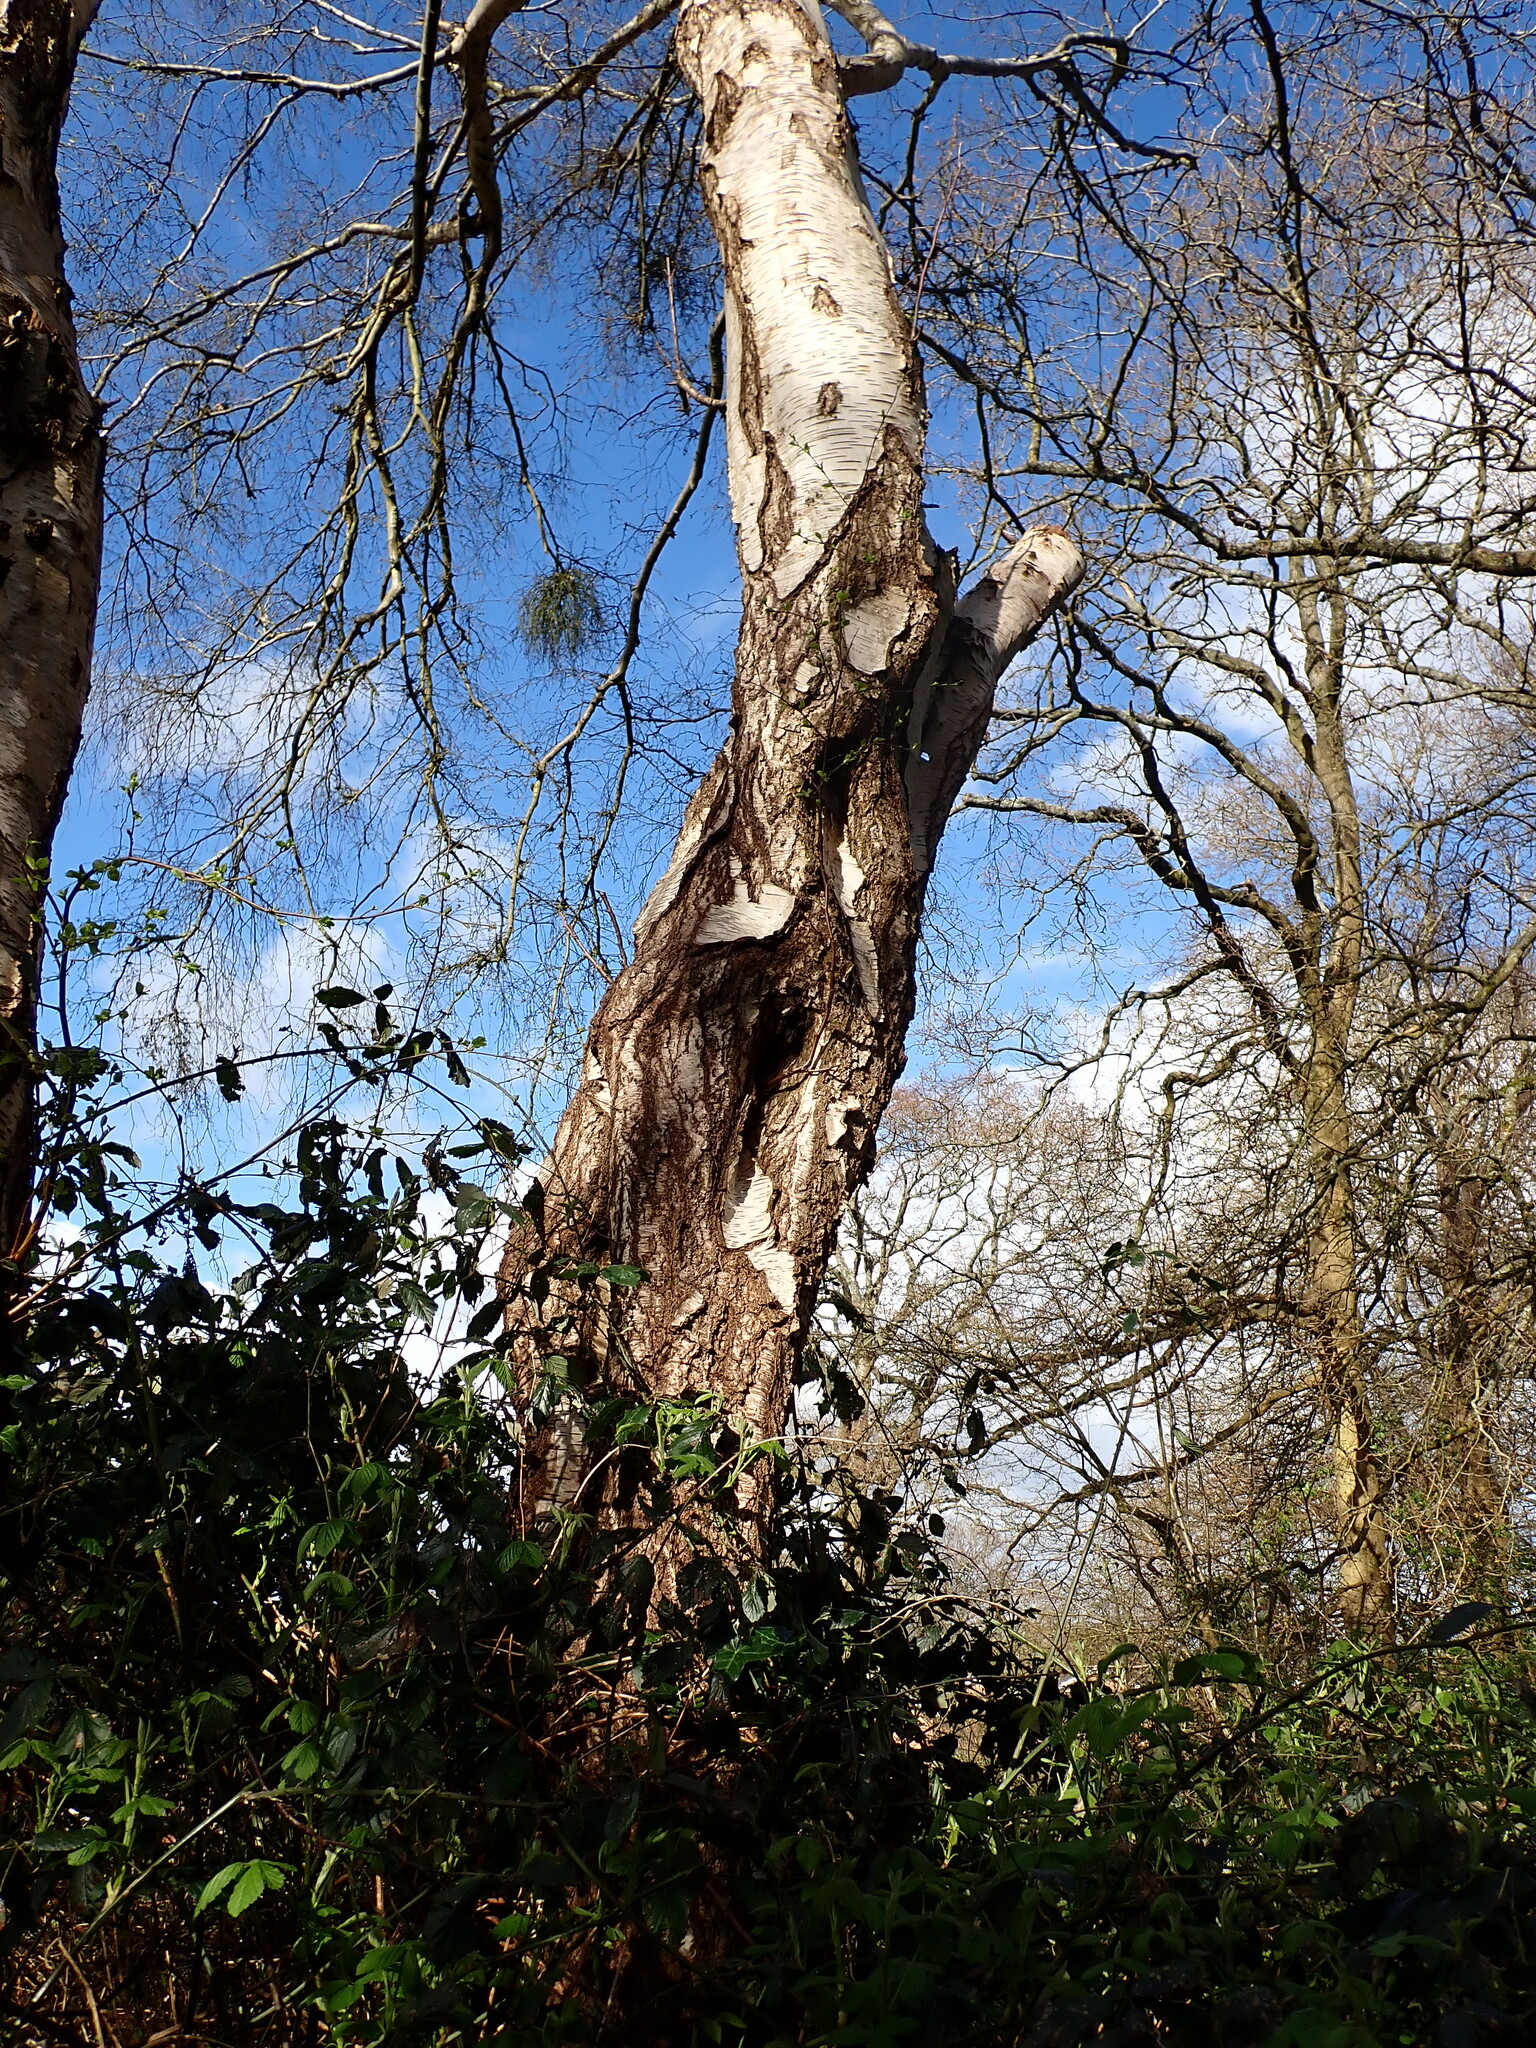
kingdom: Plantae
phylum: Tracheophyta
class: Magnoliopsida
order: Fagales
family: Betulaceae
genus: Betula
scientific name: Betula pendula
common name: Silver birch
